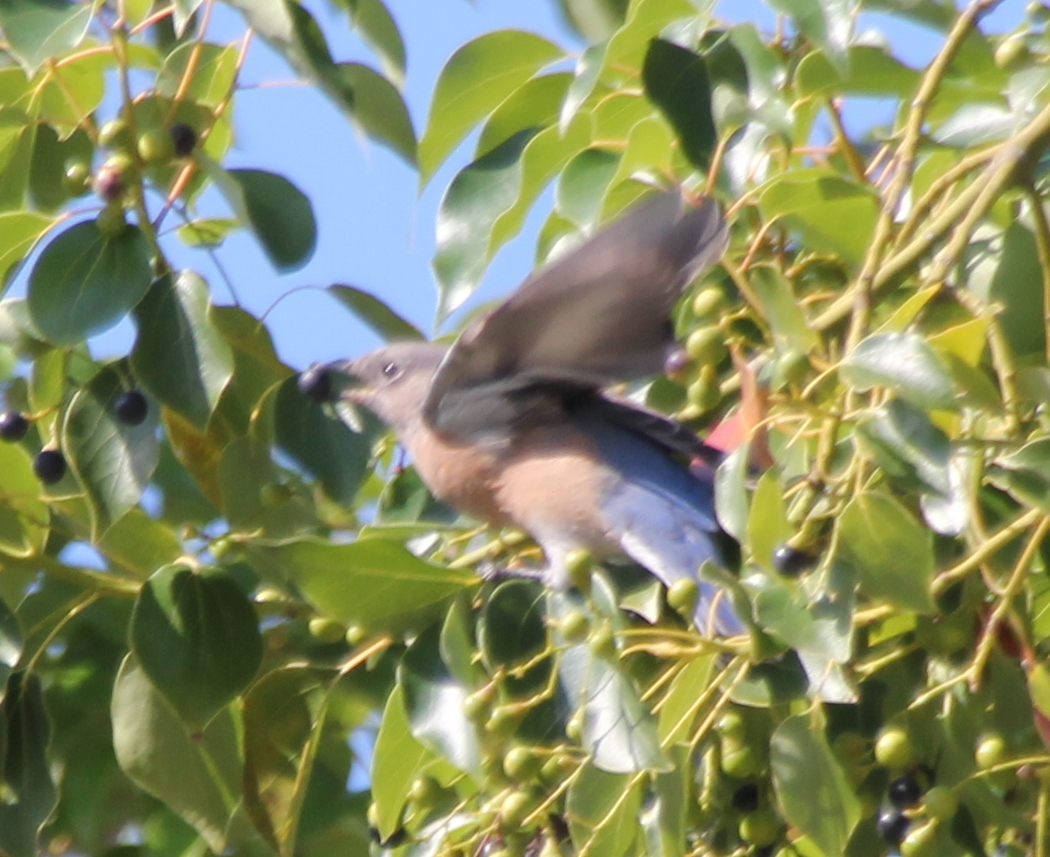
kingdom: Animalia
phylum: Chordata
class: Aves
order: Passeriformes
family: Turdidae
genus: Sialia
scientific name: Sialia mexicana
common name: Western bluebird
